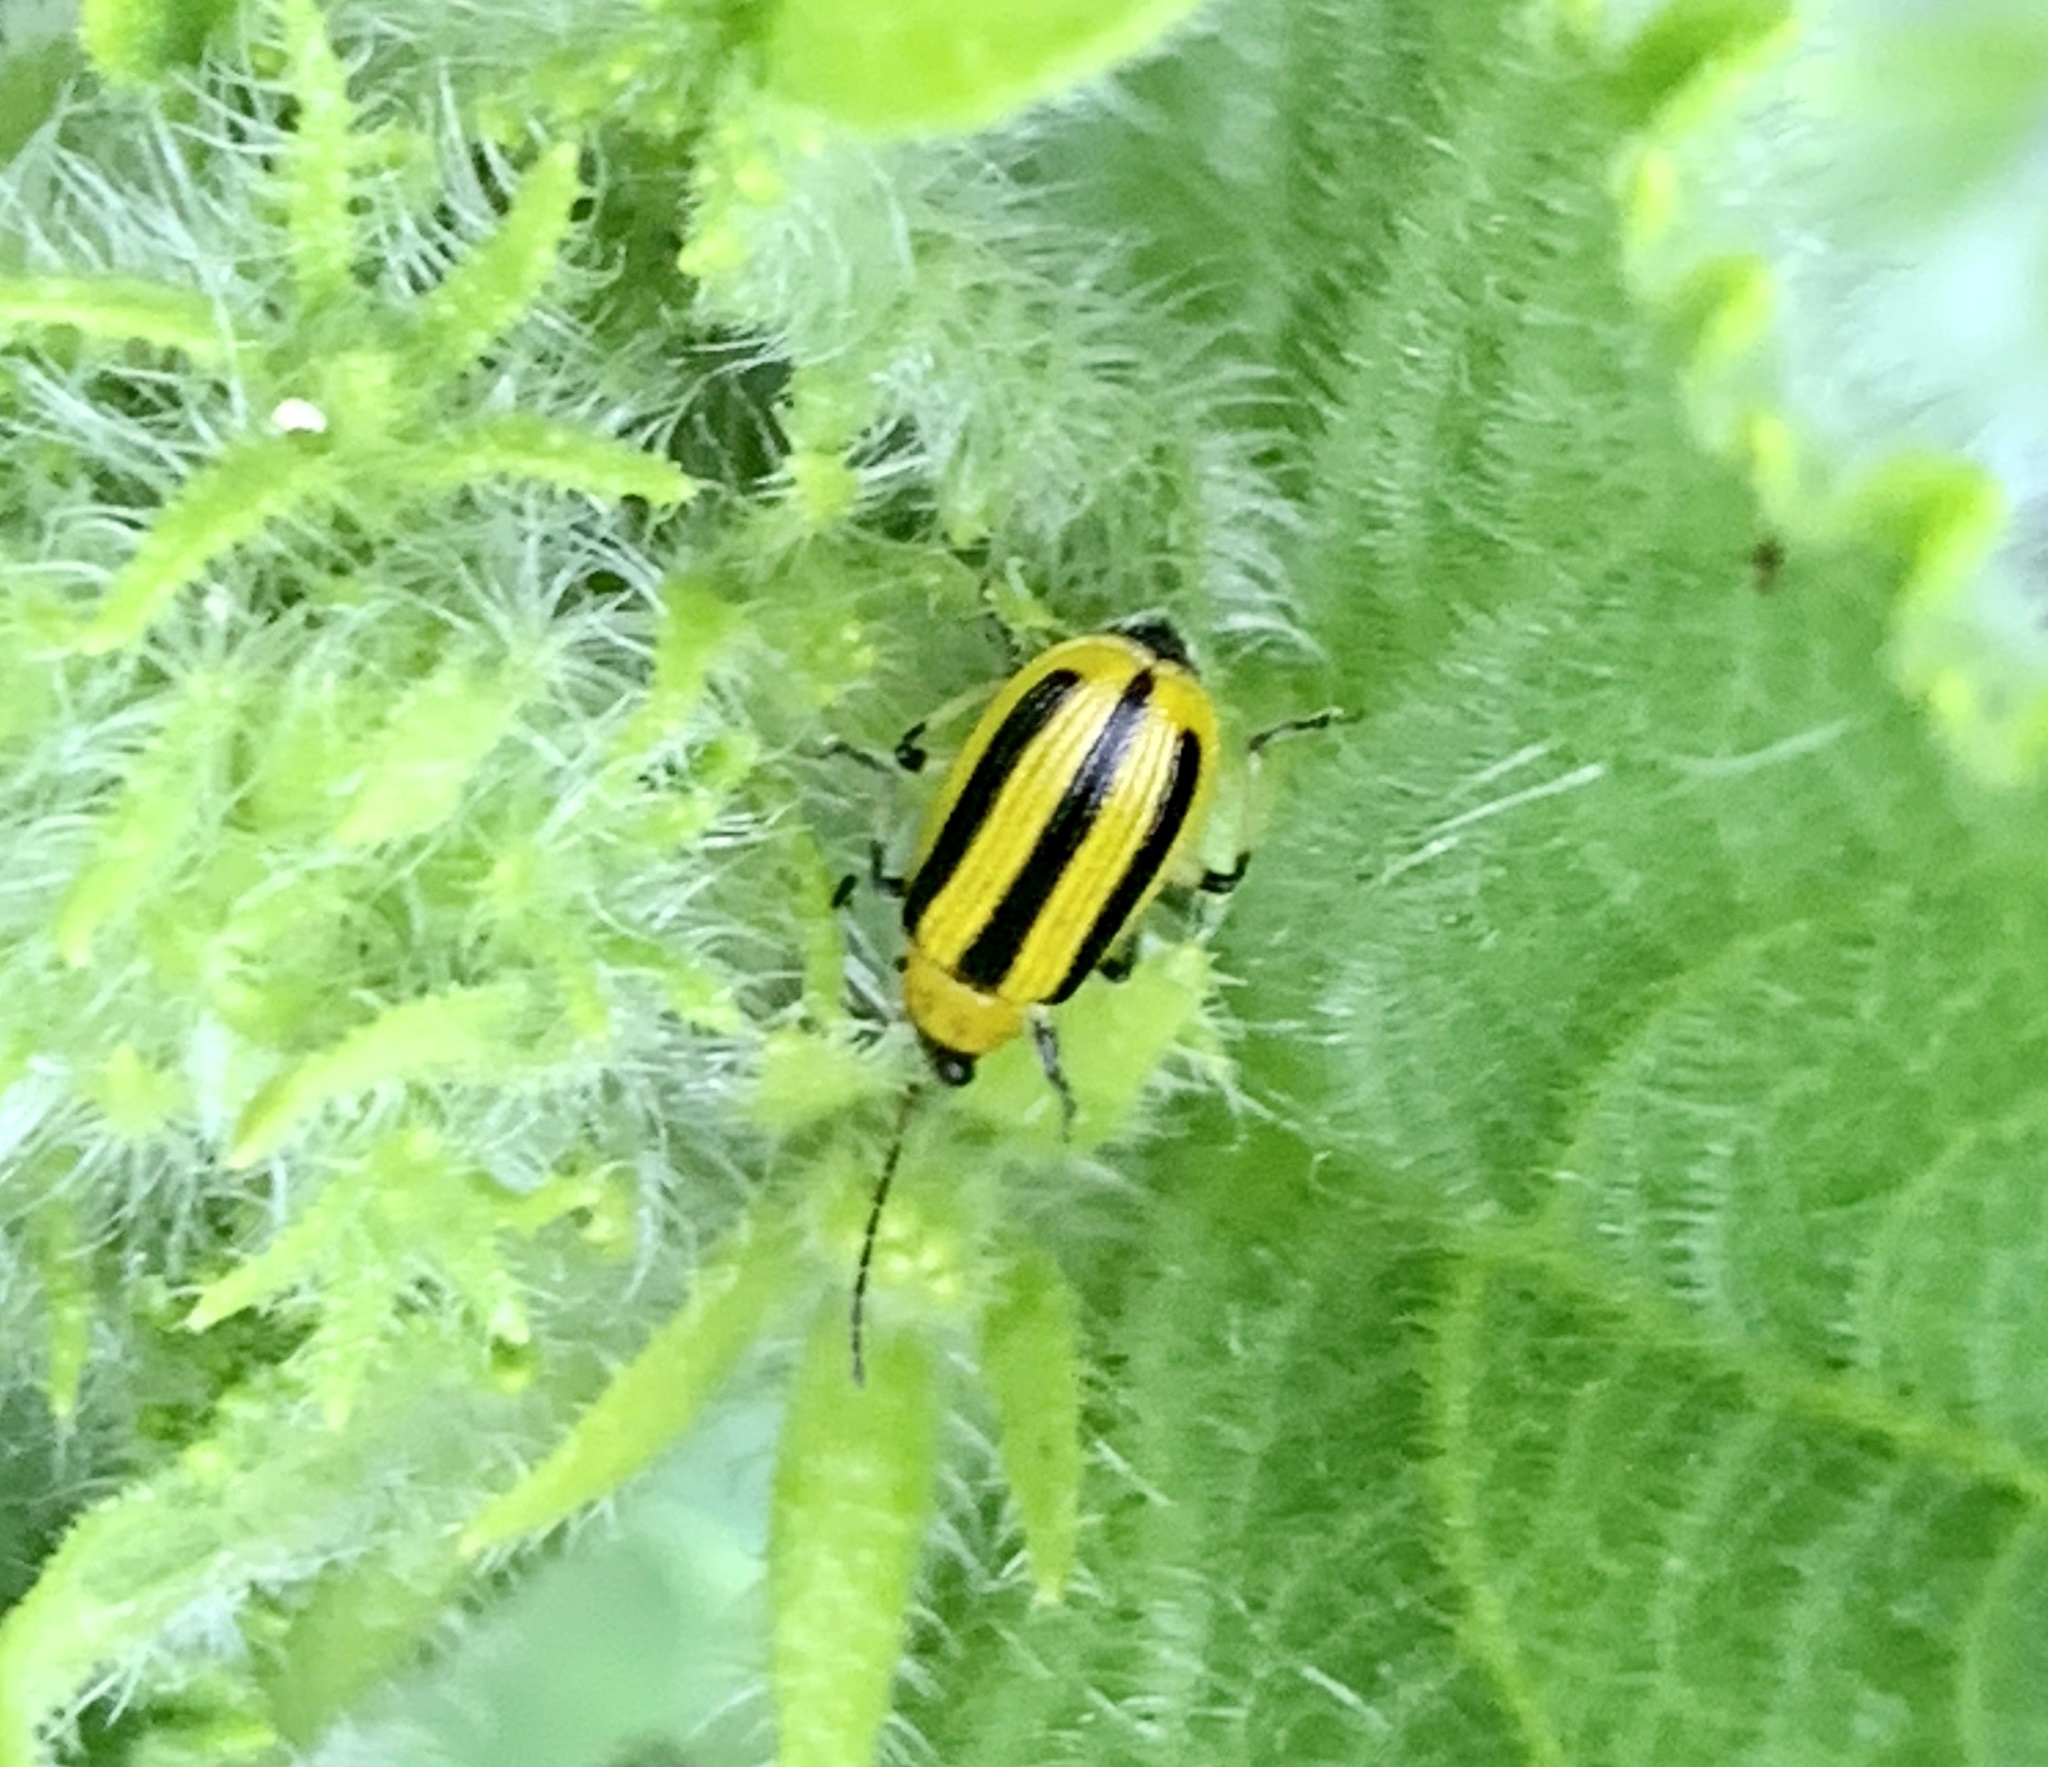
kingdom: Animalia
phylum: Arthropoda
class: Insecta
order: Coleoptera
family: Chrysomelidae
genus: Acalymma
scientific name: Acalymma vittatum
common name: Striped cucumber beetle
